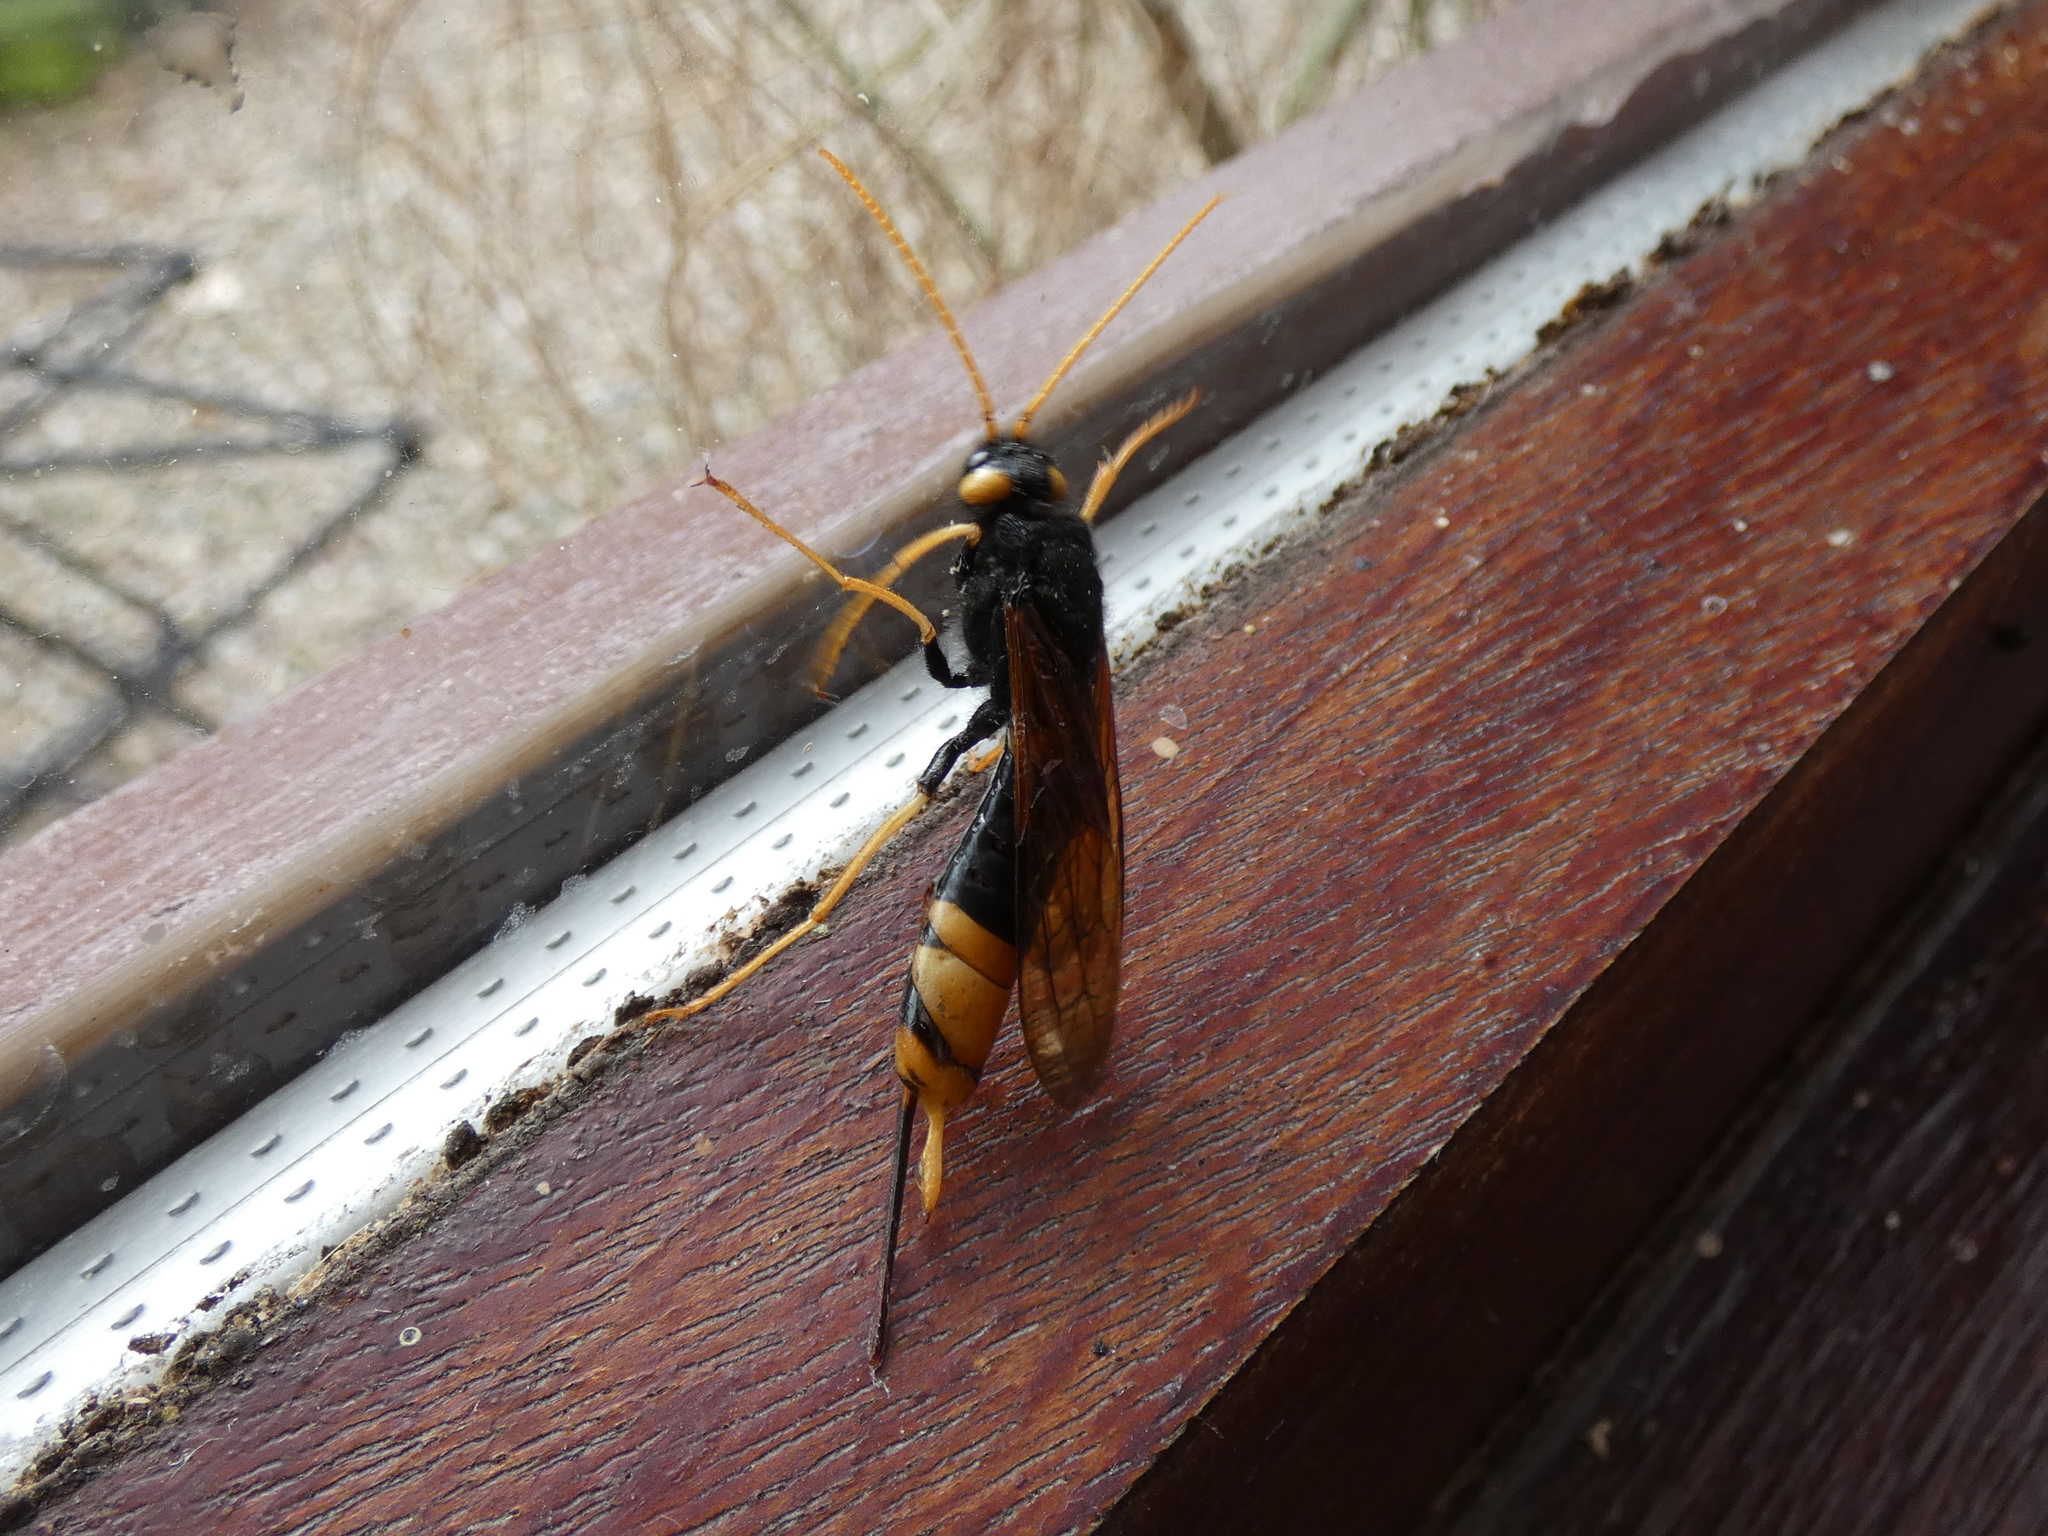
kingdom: Animalia
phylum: Arthropoda
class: Insecta
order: Hymenoptera
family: Siricidae
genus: Urocerus
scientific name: Urocerus gigas
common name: Giant woodwasp
